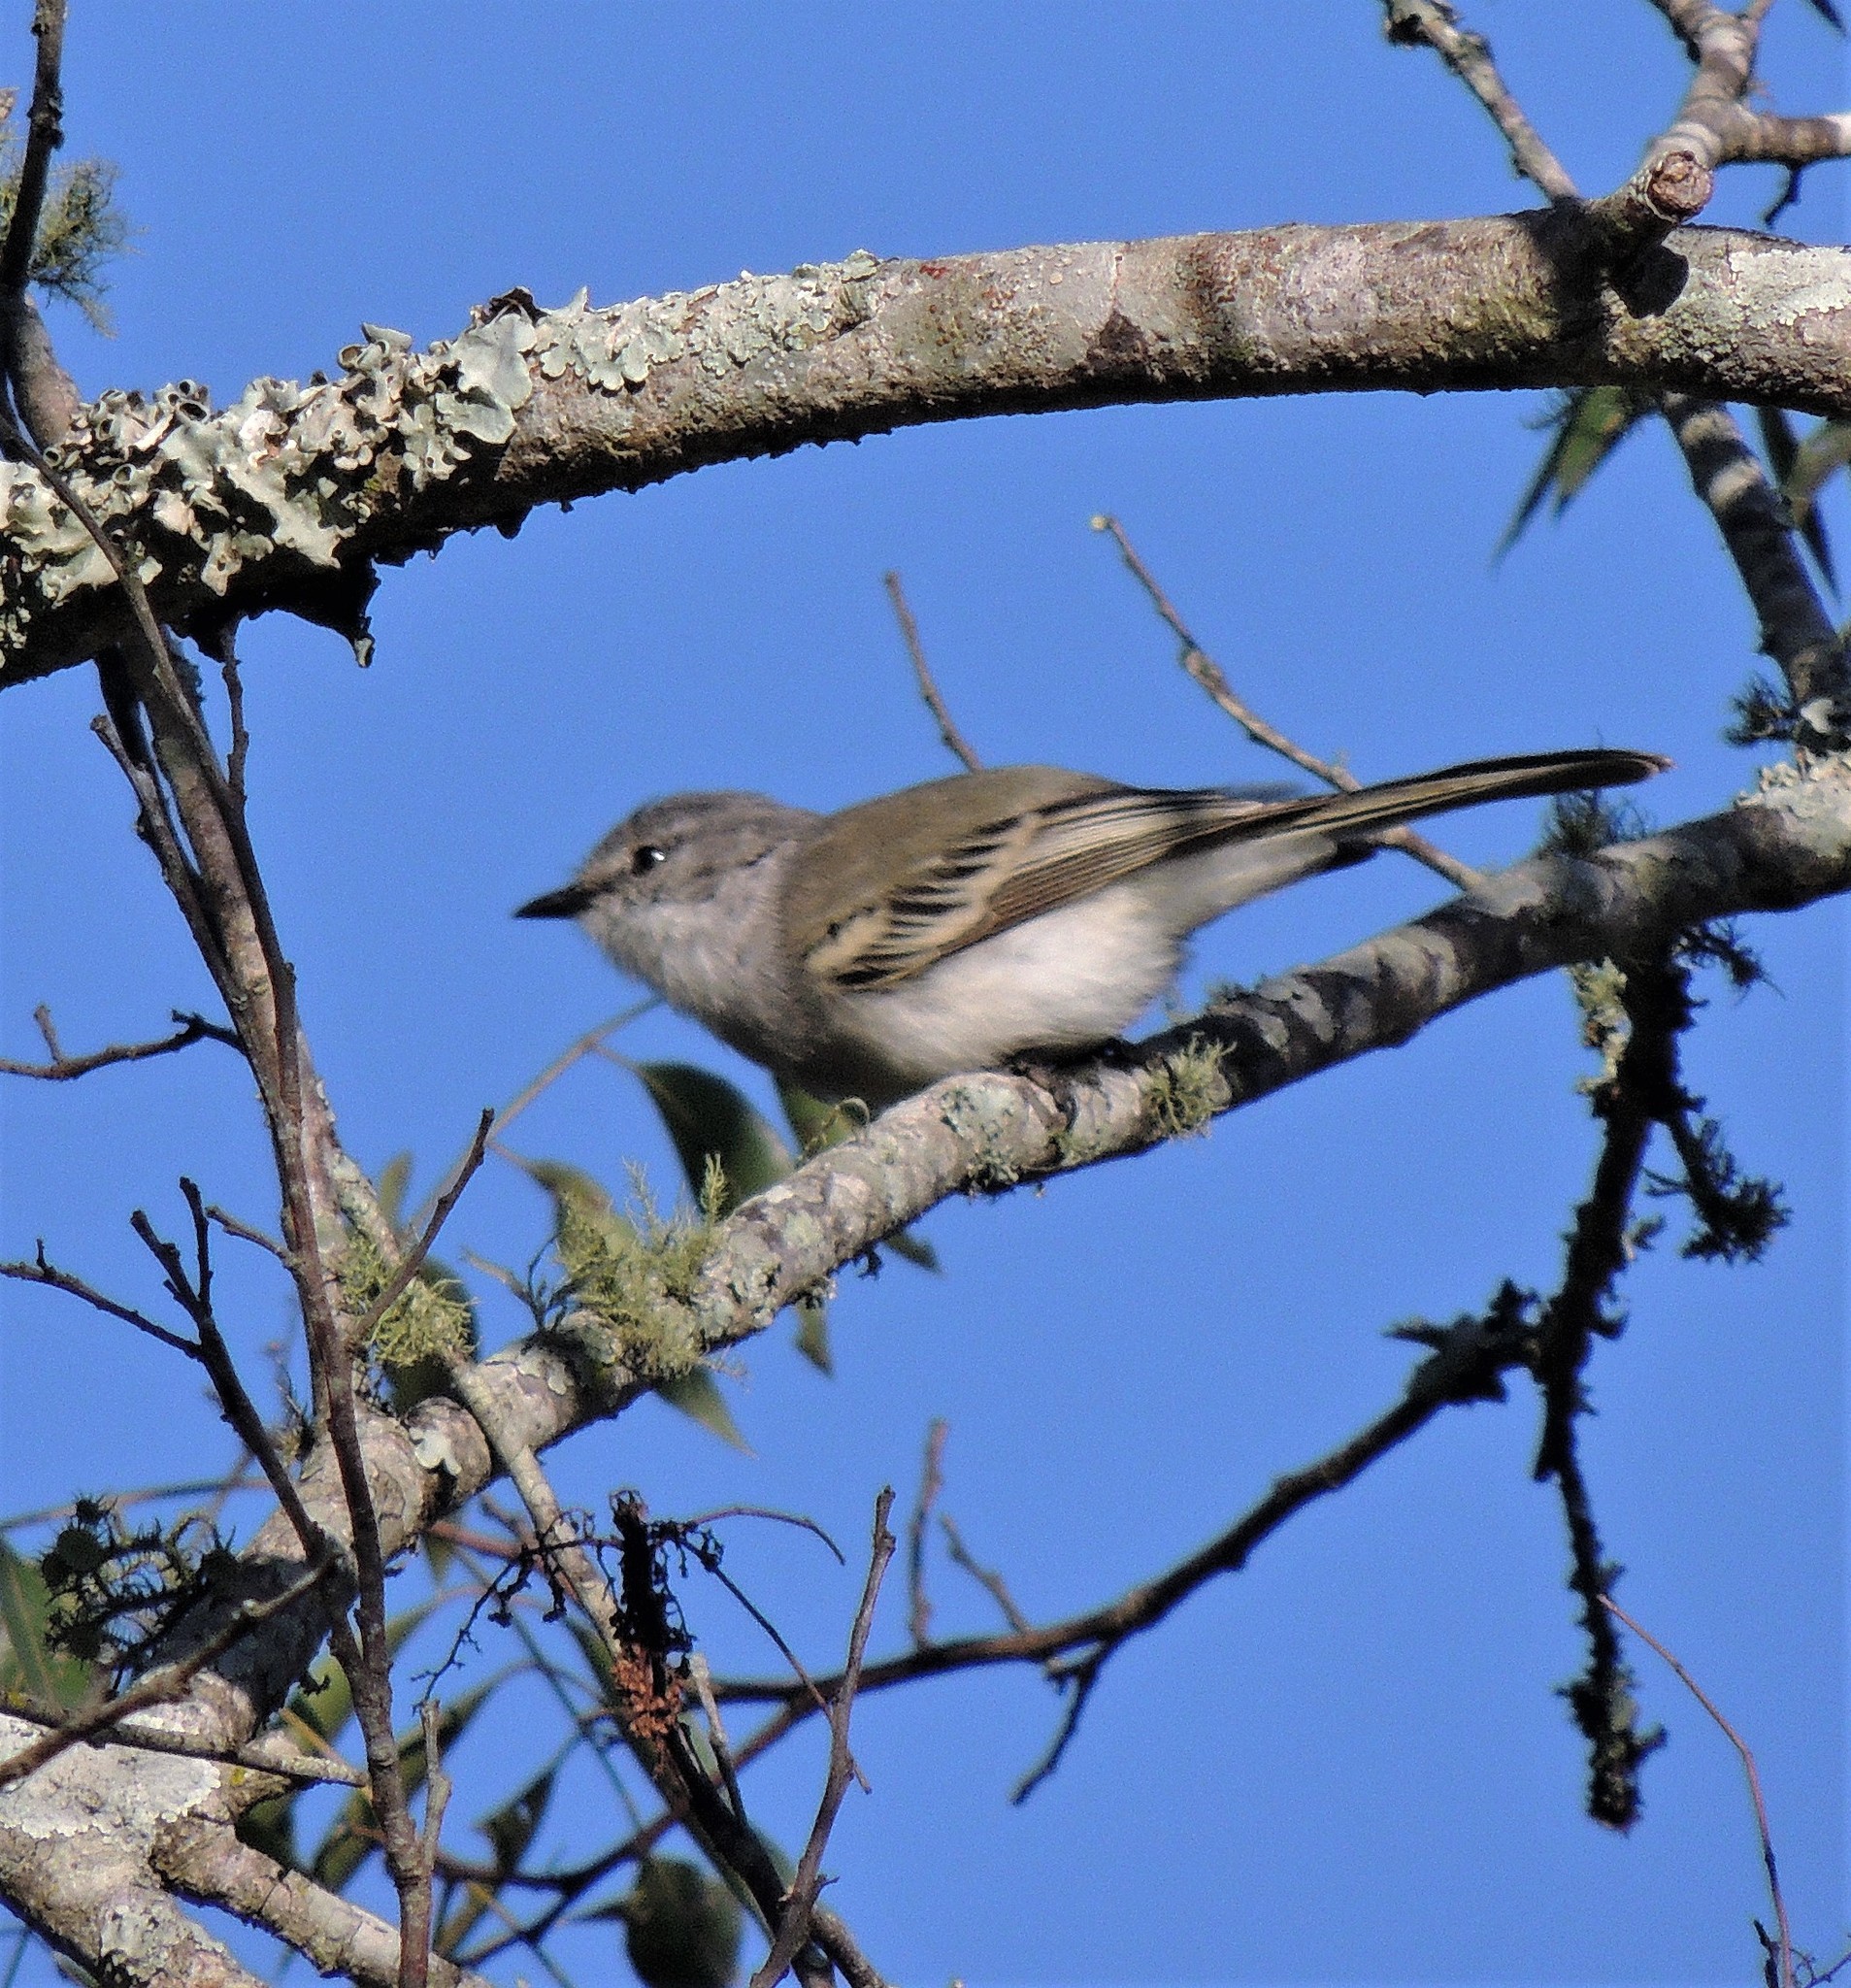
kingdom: Animalia
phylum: Chordata
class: Aves
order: Passeriformes
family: Tyrannidae
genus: Suiriri
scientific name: Suiriri suiriri
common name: Suiriri flycatcher
